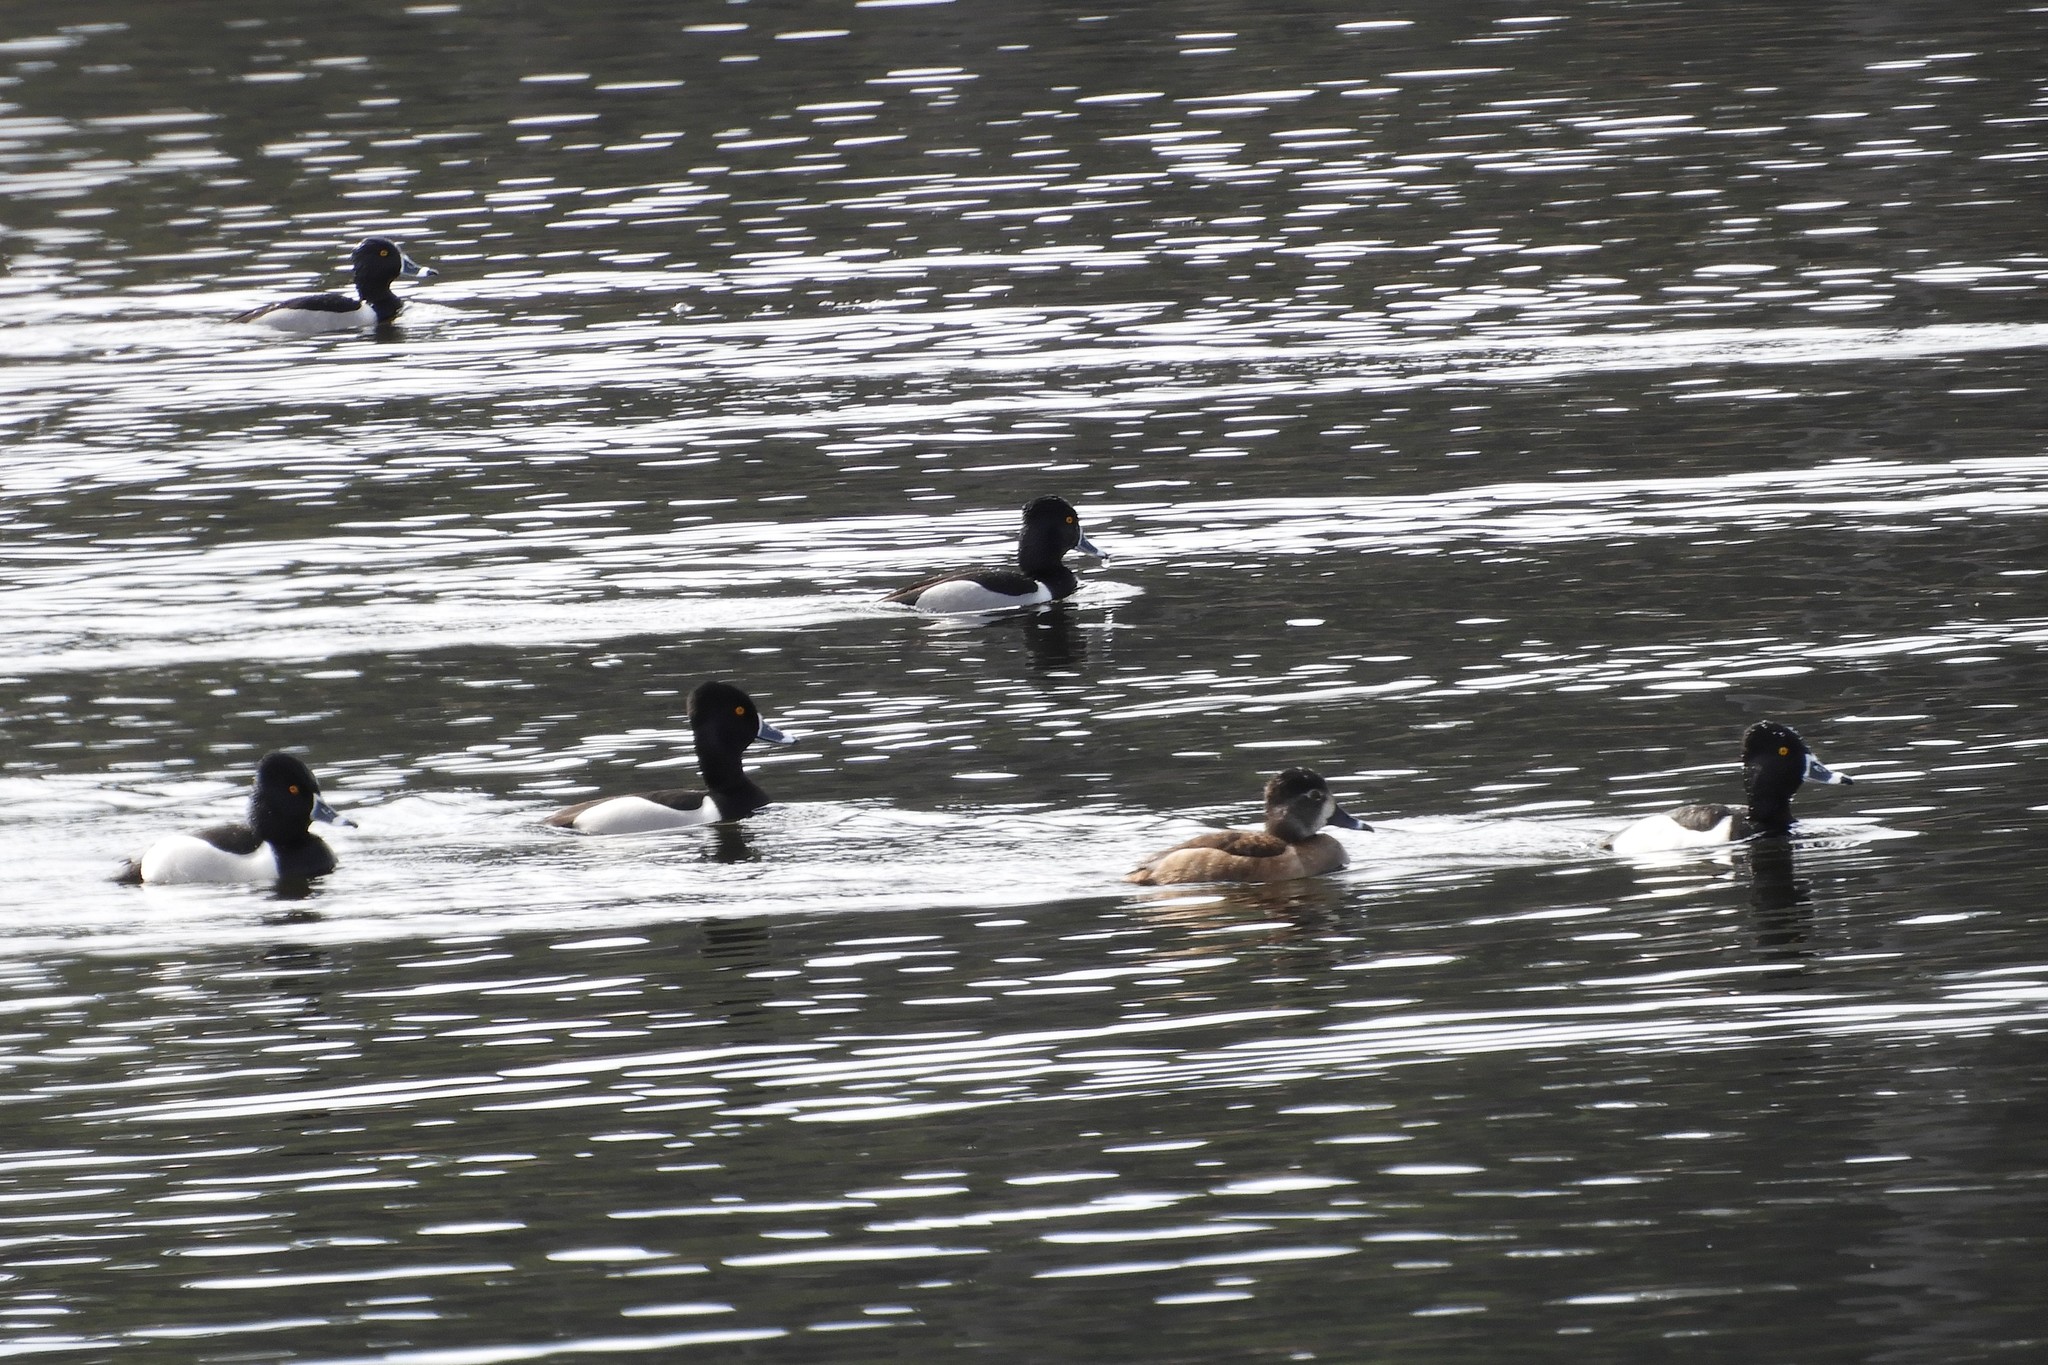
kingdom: Animalia
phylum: Chordata
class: Aves
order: Anseriformes
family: Anatidae
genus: Aythya
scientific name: Aythya collaris
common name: Ring-necked duck
